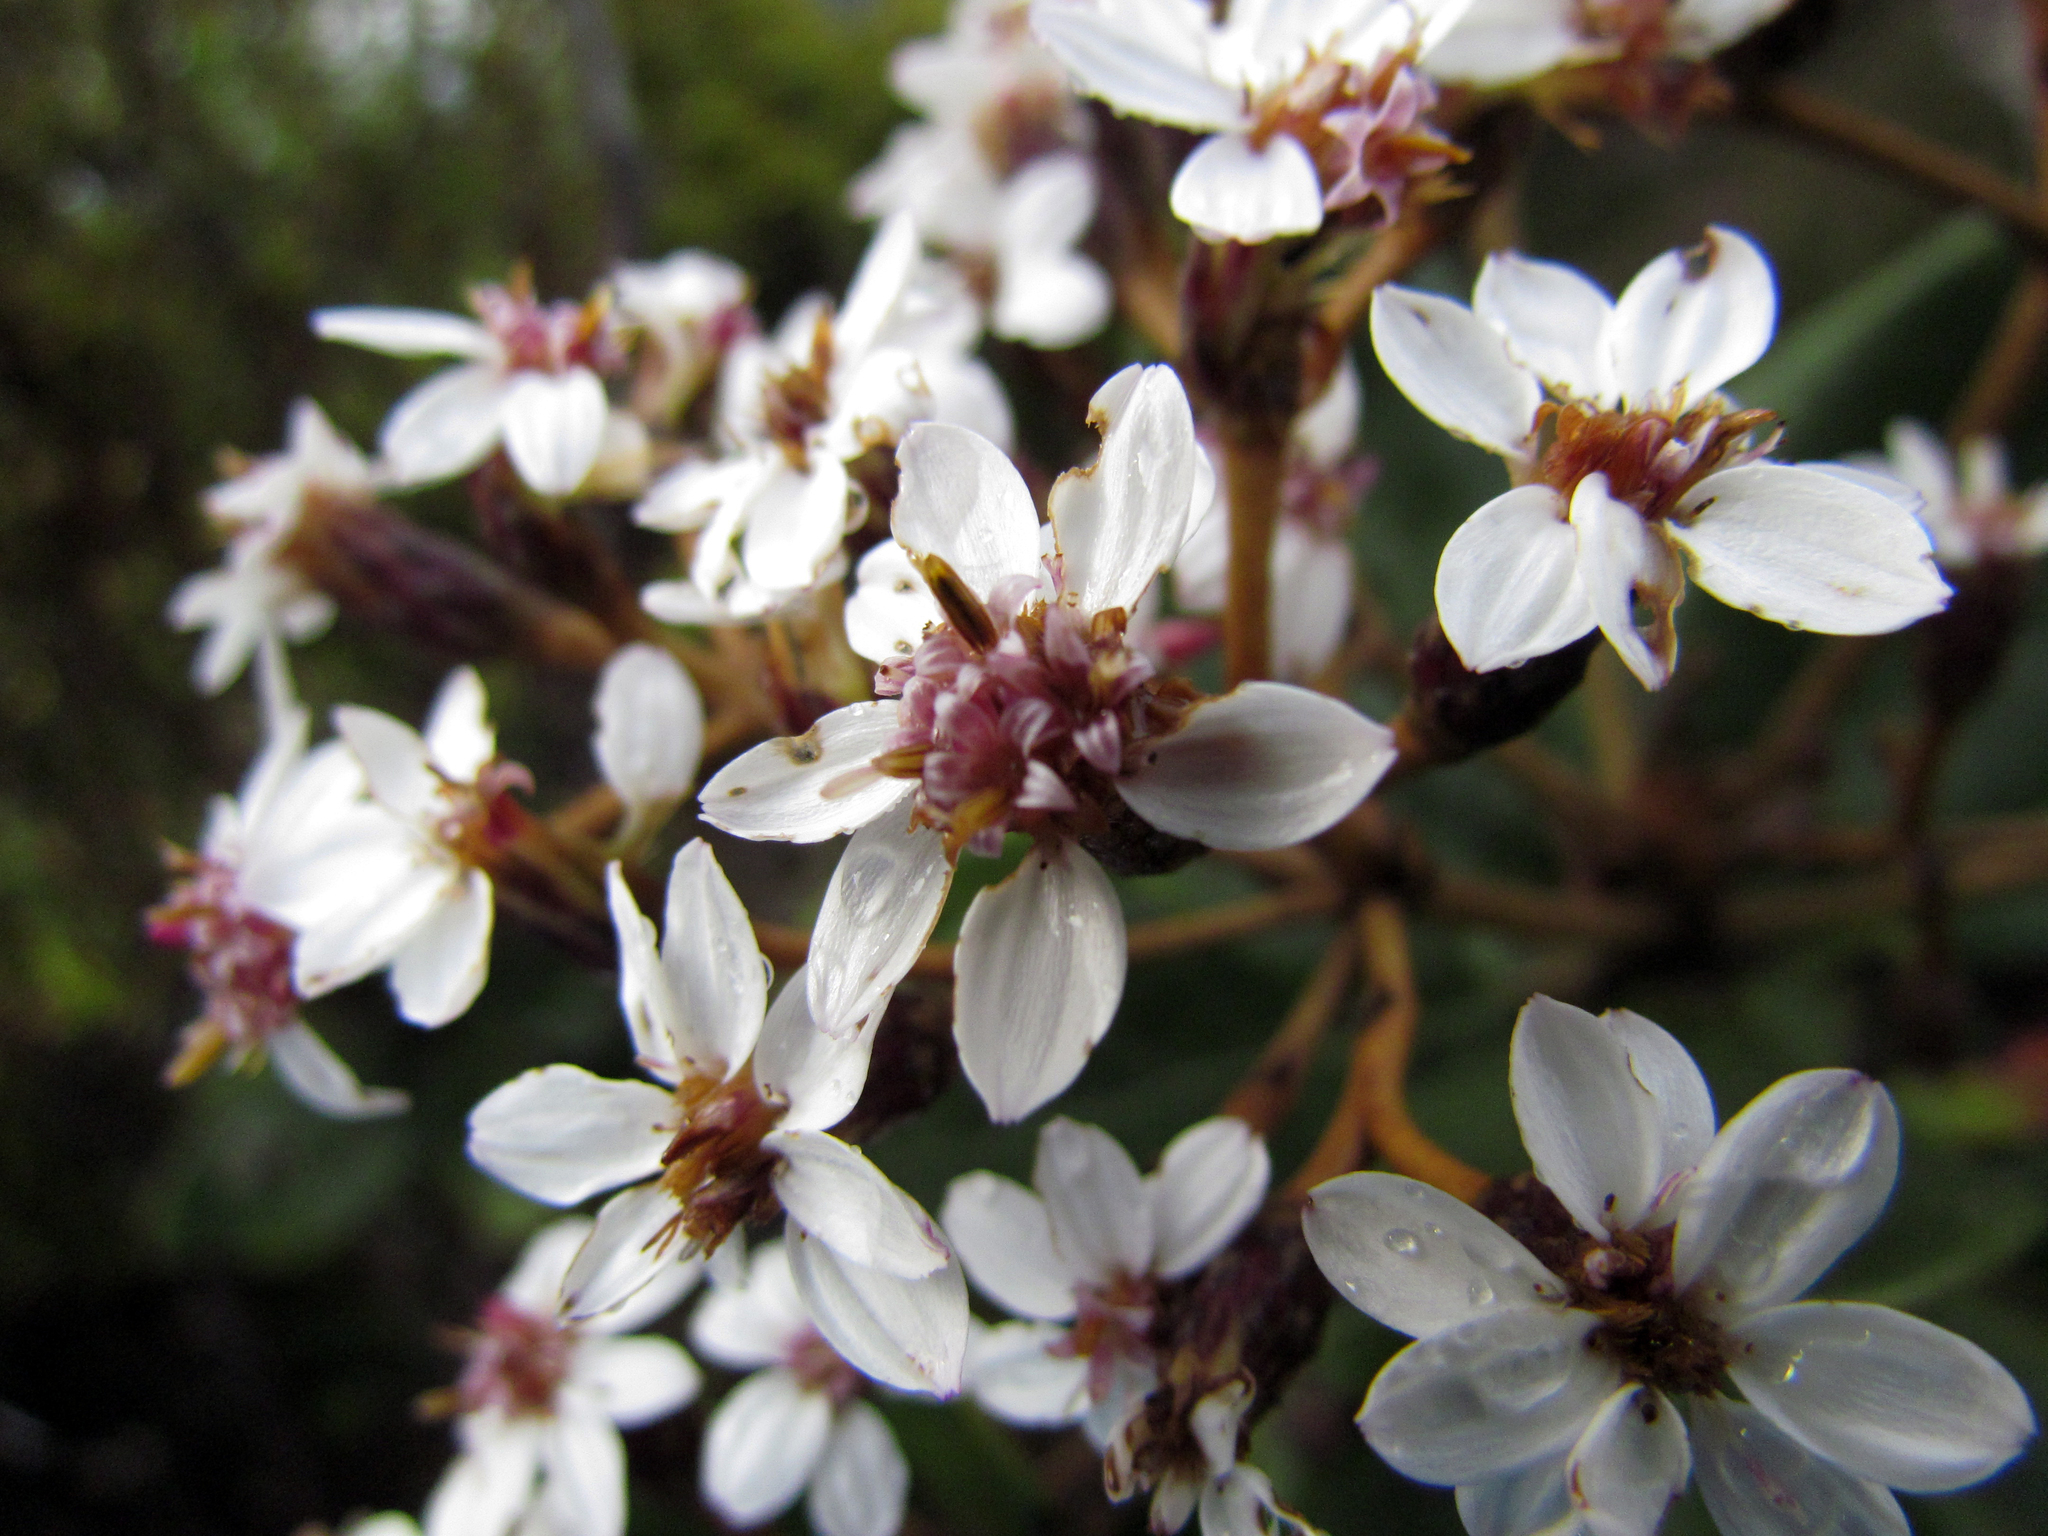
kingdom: Plantae
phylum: Tracheophyta
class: Magnoliopsida
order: Asterales
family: Asteraceae
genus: Olearia
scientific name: Olearia allomii
